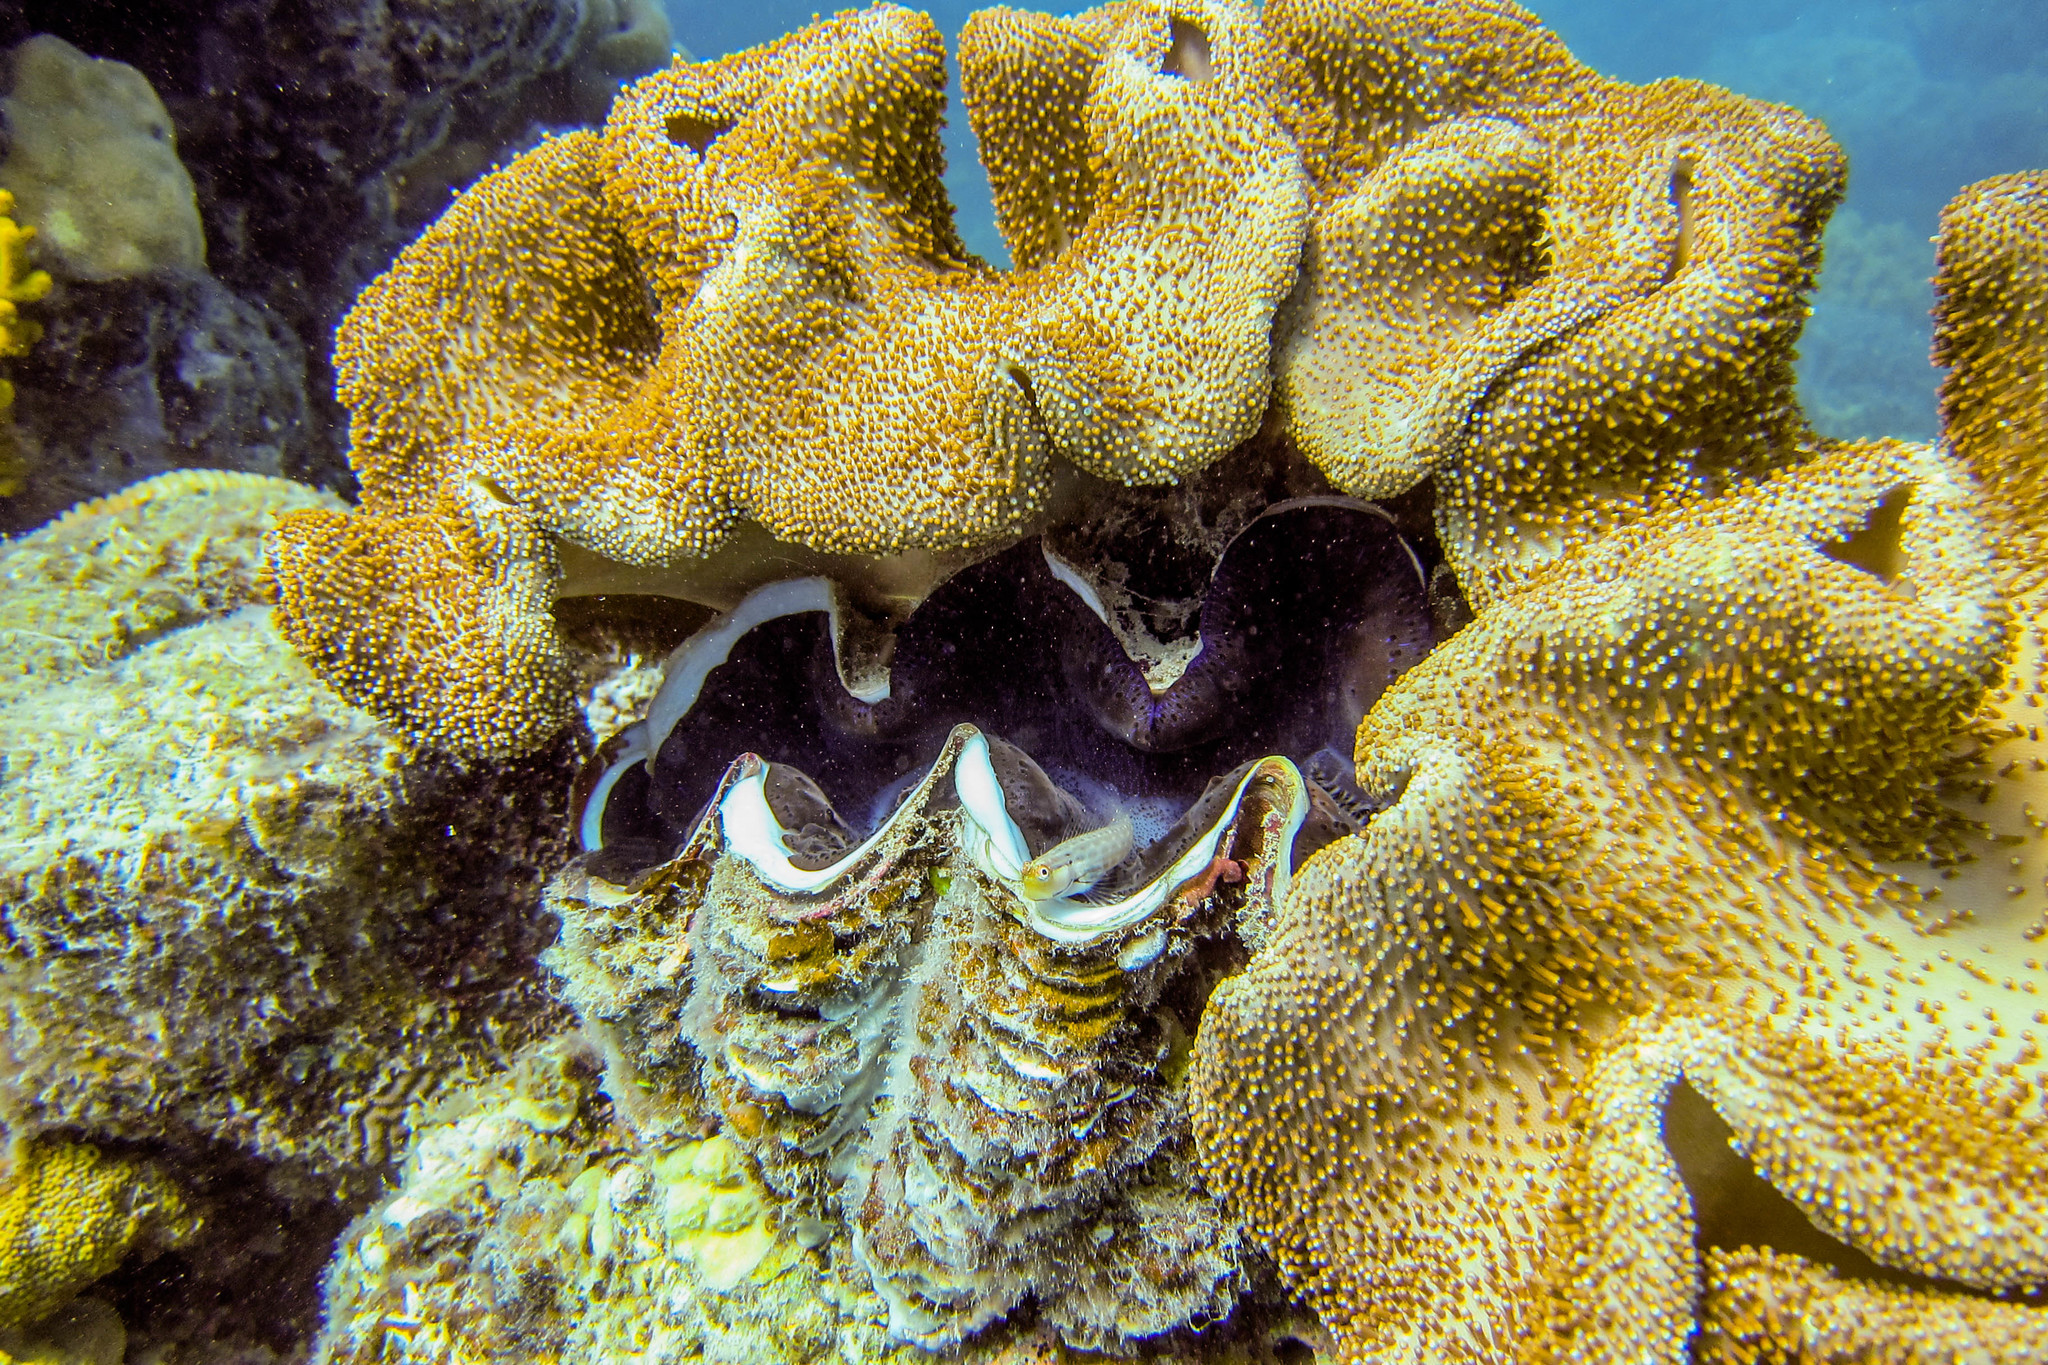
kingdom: Animalia
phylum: Mollusca
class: Bivalvia
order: Cardiida
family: Cardiidae
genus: Tridacna
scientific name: Tridacna squamosa
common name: Fluted clam
